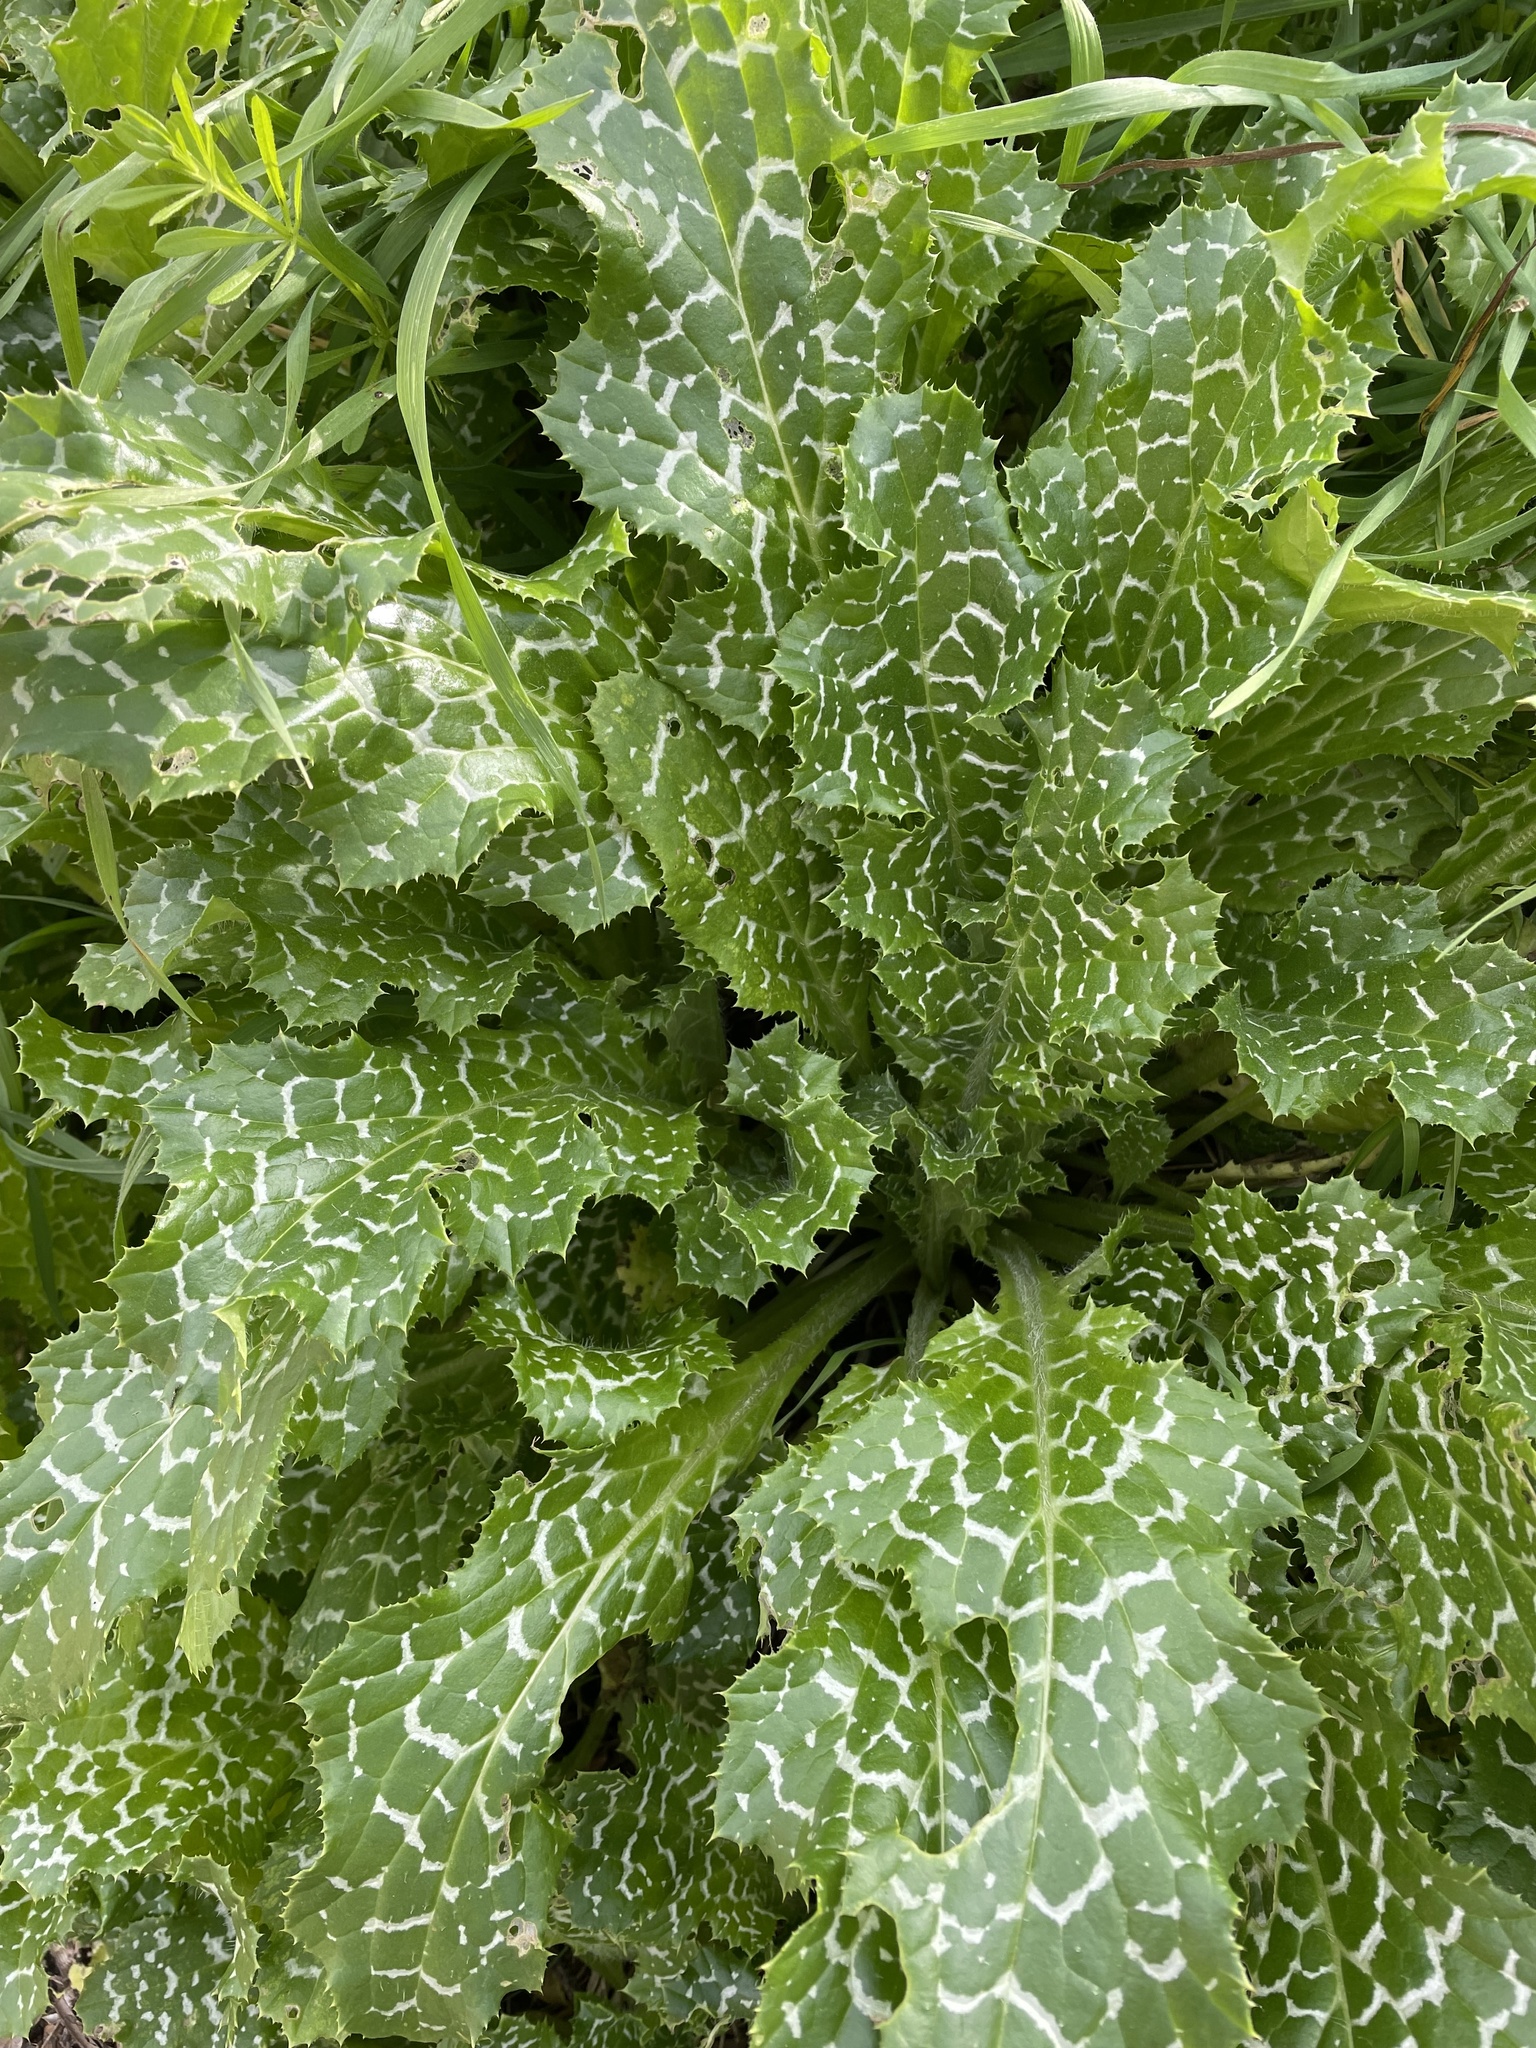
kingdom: Plantae
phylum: Tracheophyta
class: Magnoliopsida
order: Asterales
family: Asteraceae
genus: Silybum
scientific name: Silybum marianum
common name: Milk thistle
